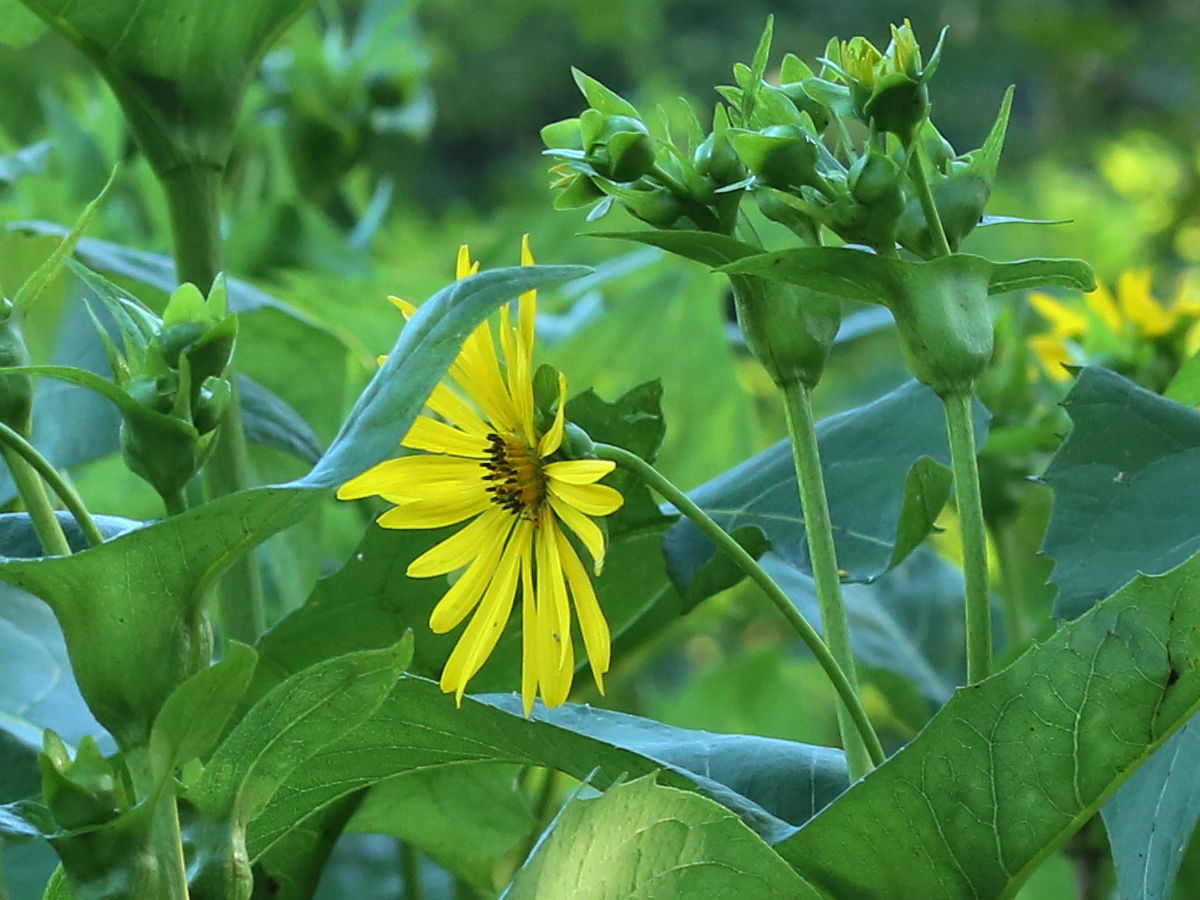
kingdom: Plantae
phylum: Tracheophyta
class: Magnoliopsida
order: Asterales
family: Asteraceae
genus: Silphium
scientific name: Silphium perfoliatum
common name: Cup-plant
